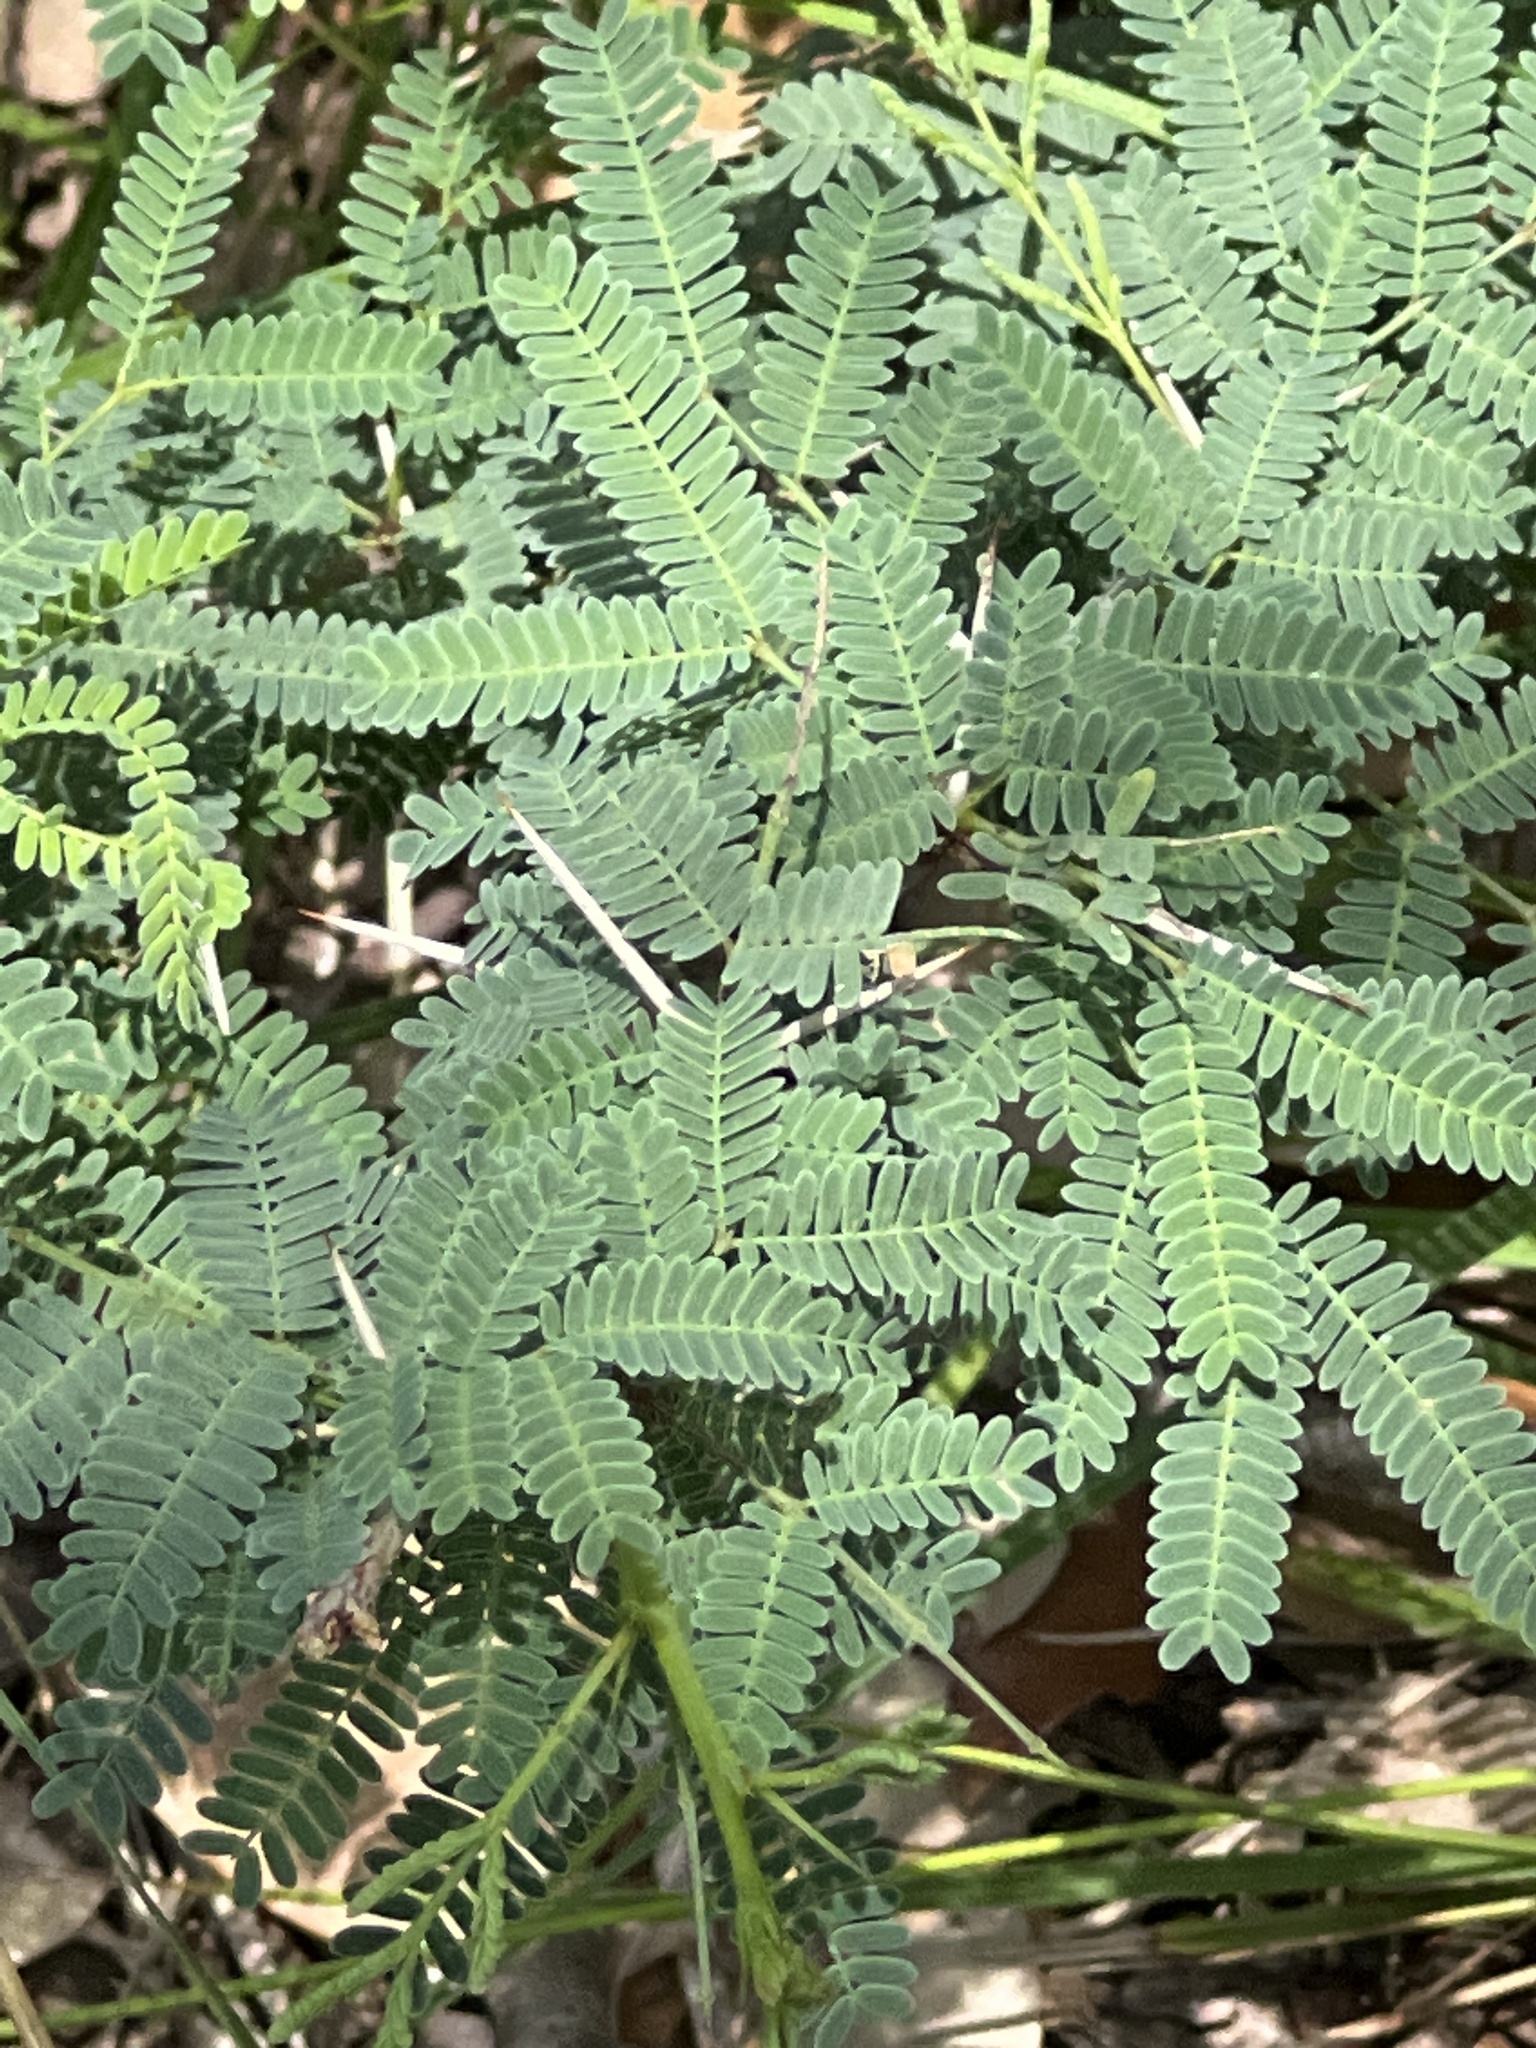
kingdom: Plantae
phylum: Tracheophyta
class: Magnoliopsida
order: Fabales
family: Fabaceae
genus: Vachellia
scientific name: Vachellia farnesiana
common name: Sweet acacia
